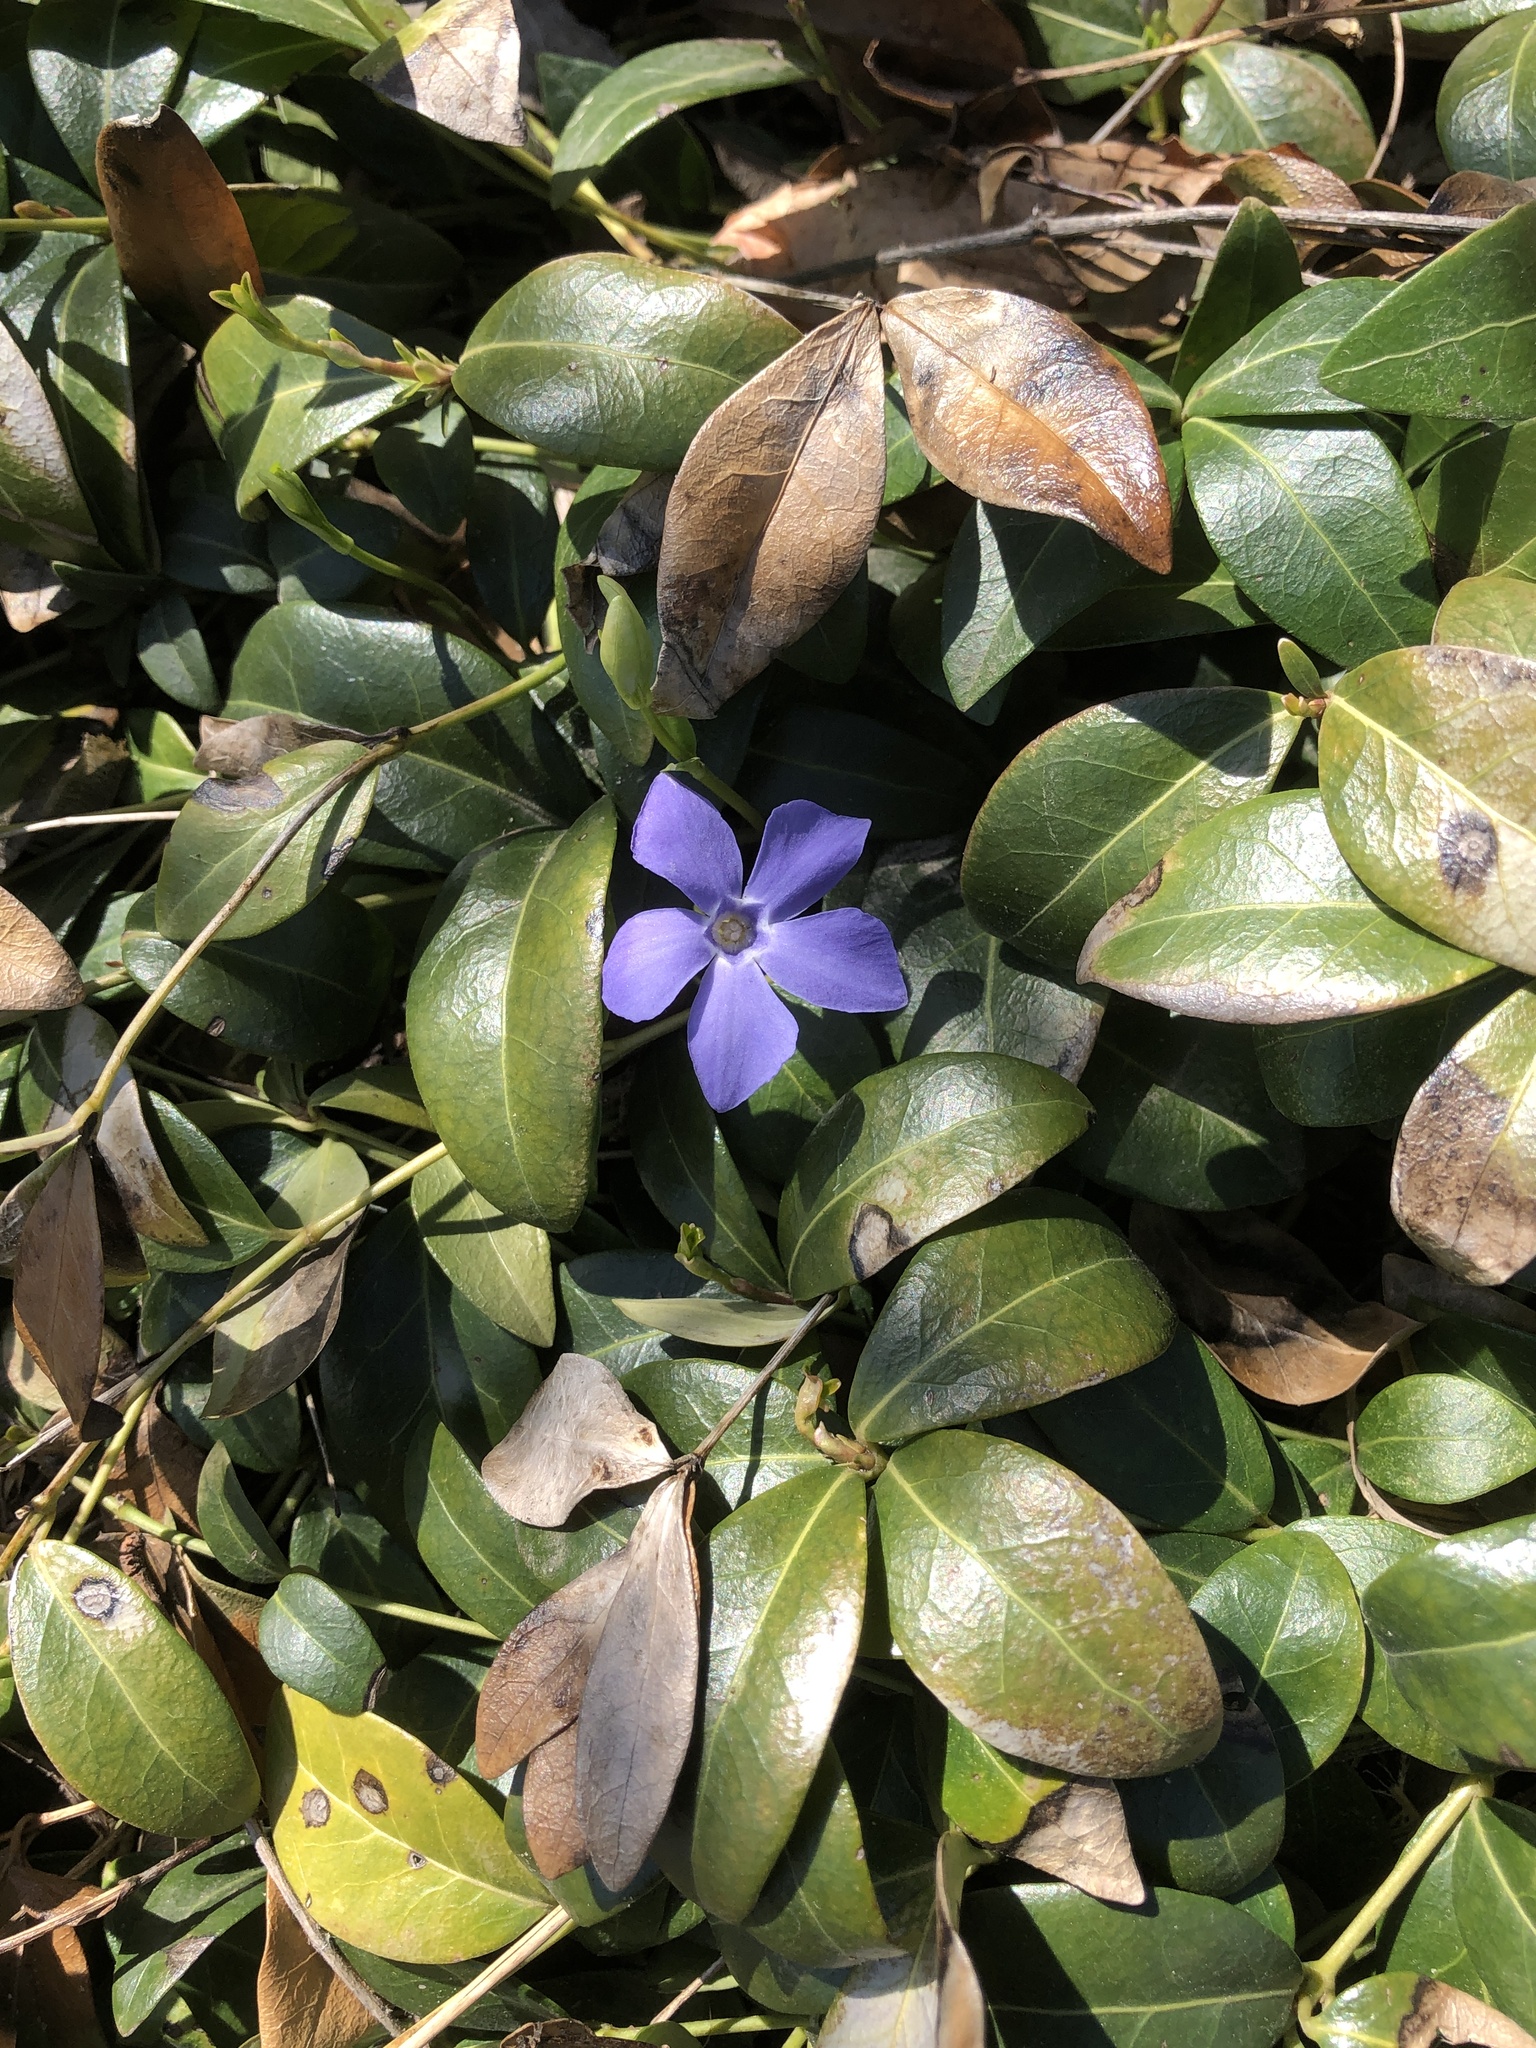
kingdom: Plantae
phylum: Tracheophyta
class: Magnoliopsida
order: Gentianales
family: Apocynaceae
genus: Vinca
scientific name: Vinca minor
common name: Lesser periwinkle
